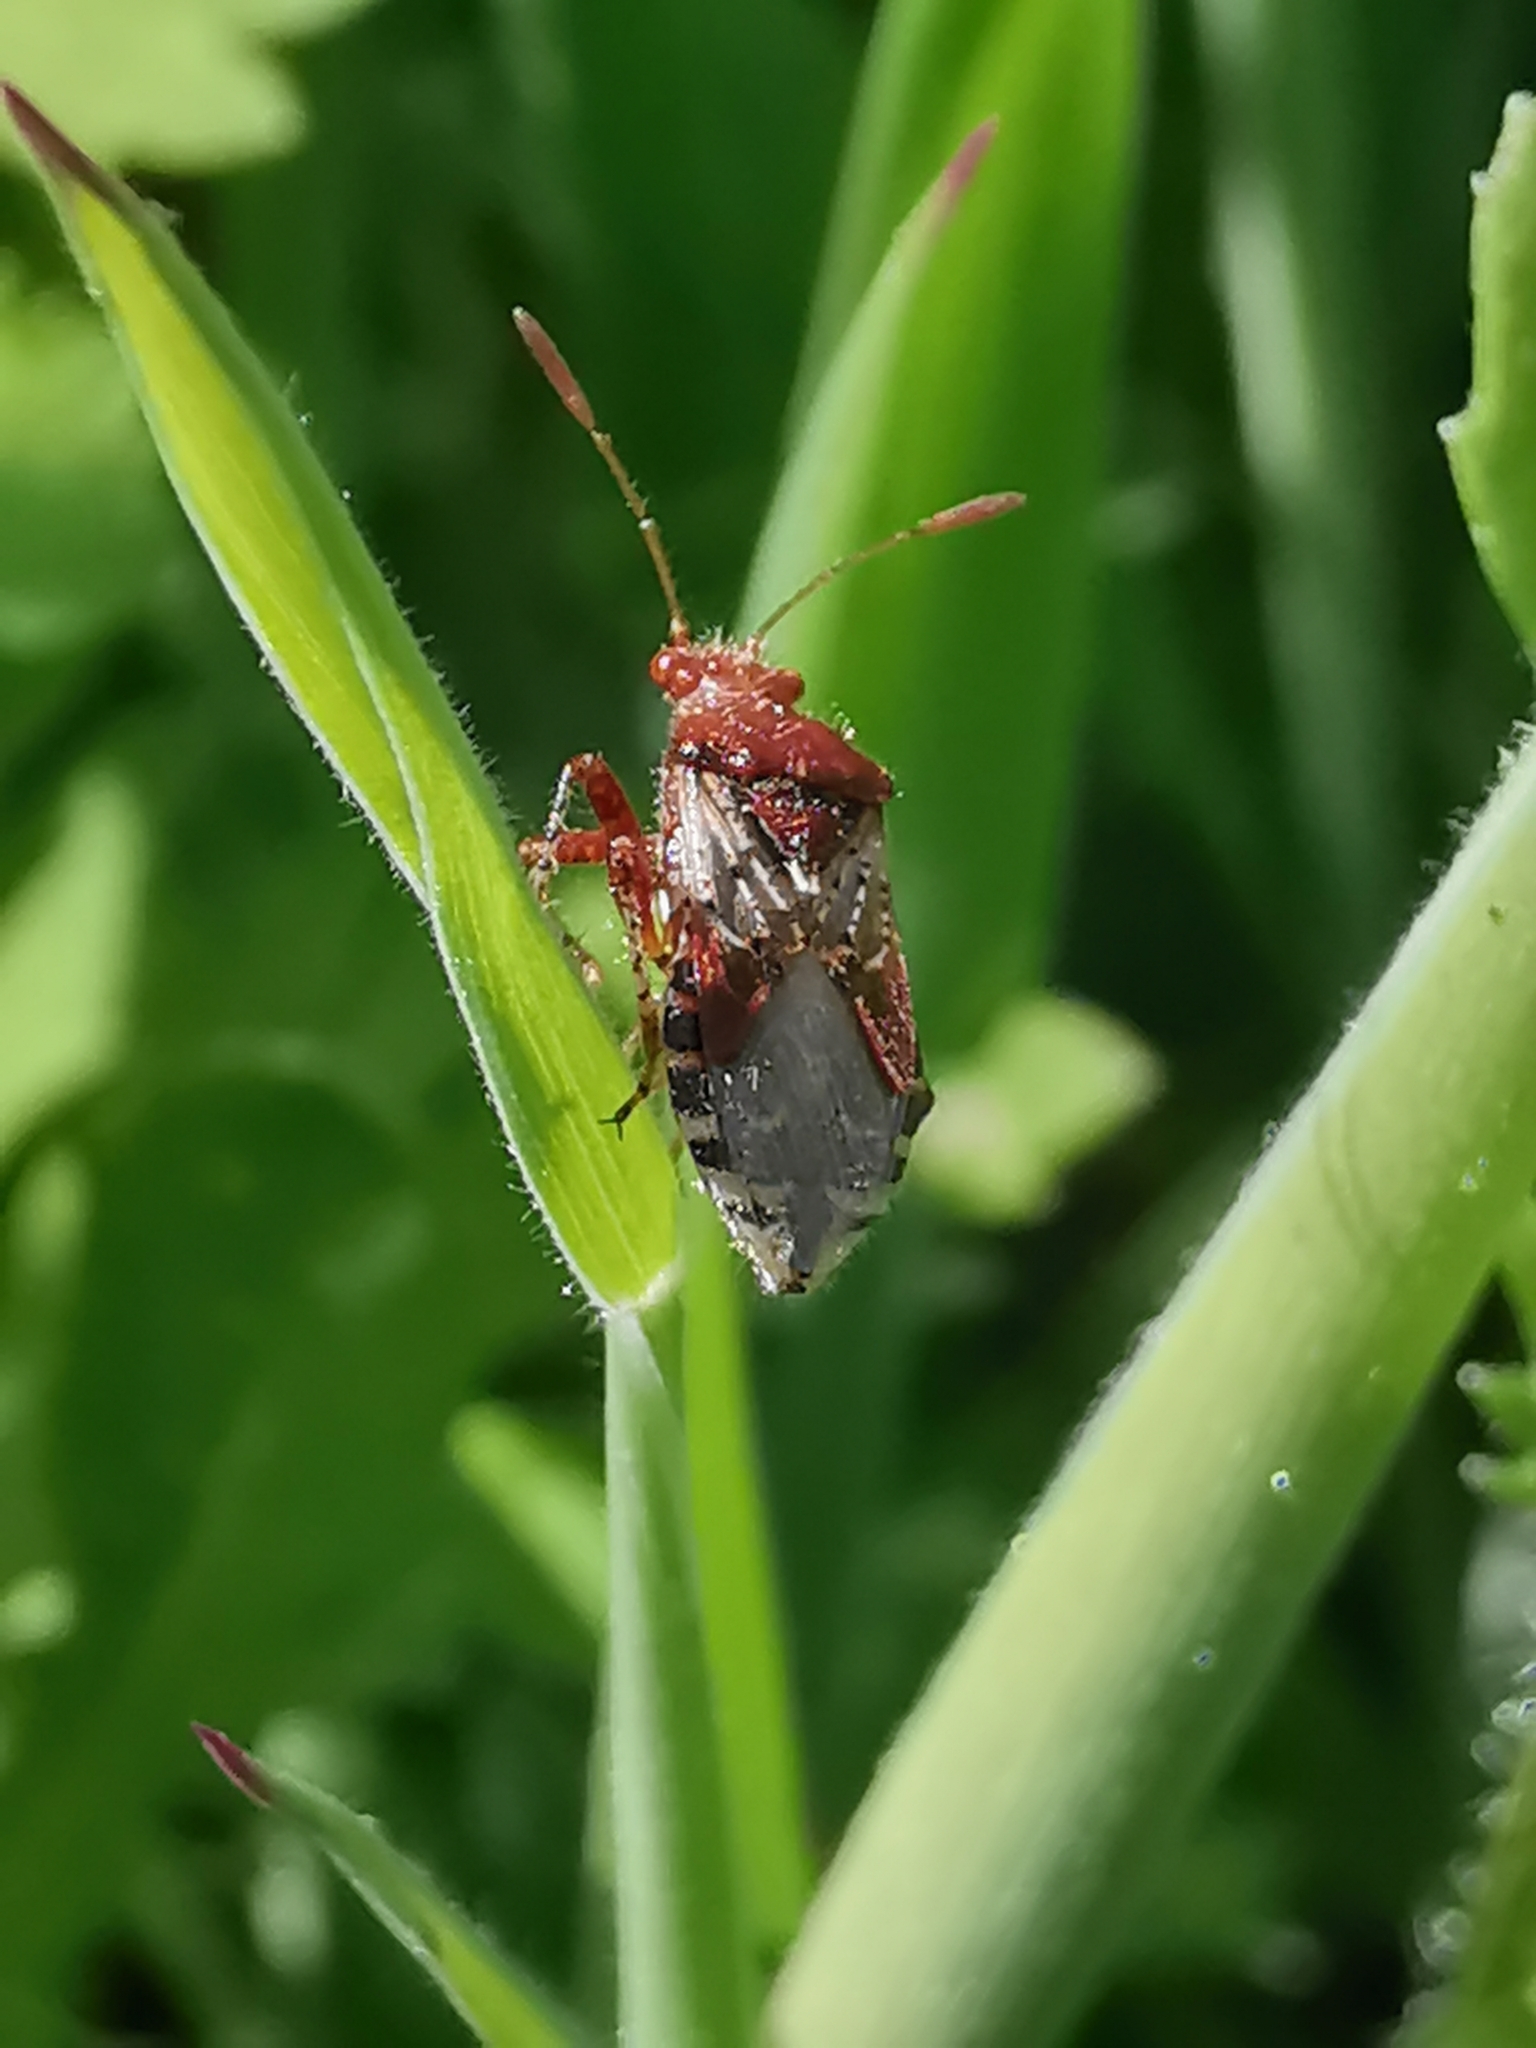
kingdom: Animalia
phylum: Arthropoda
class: Insecta
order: Hemiptera
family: Rhopalidae
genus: Rhopalus
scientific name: Rhopalus subrufus
